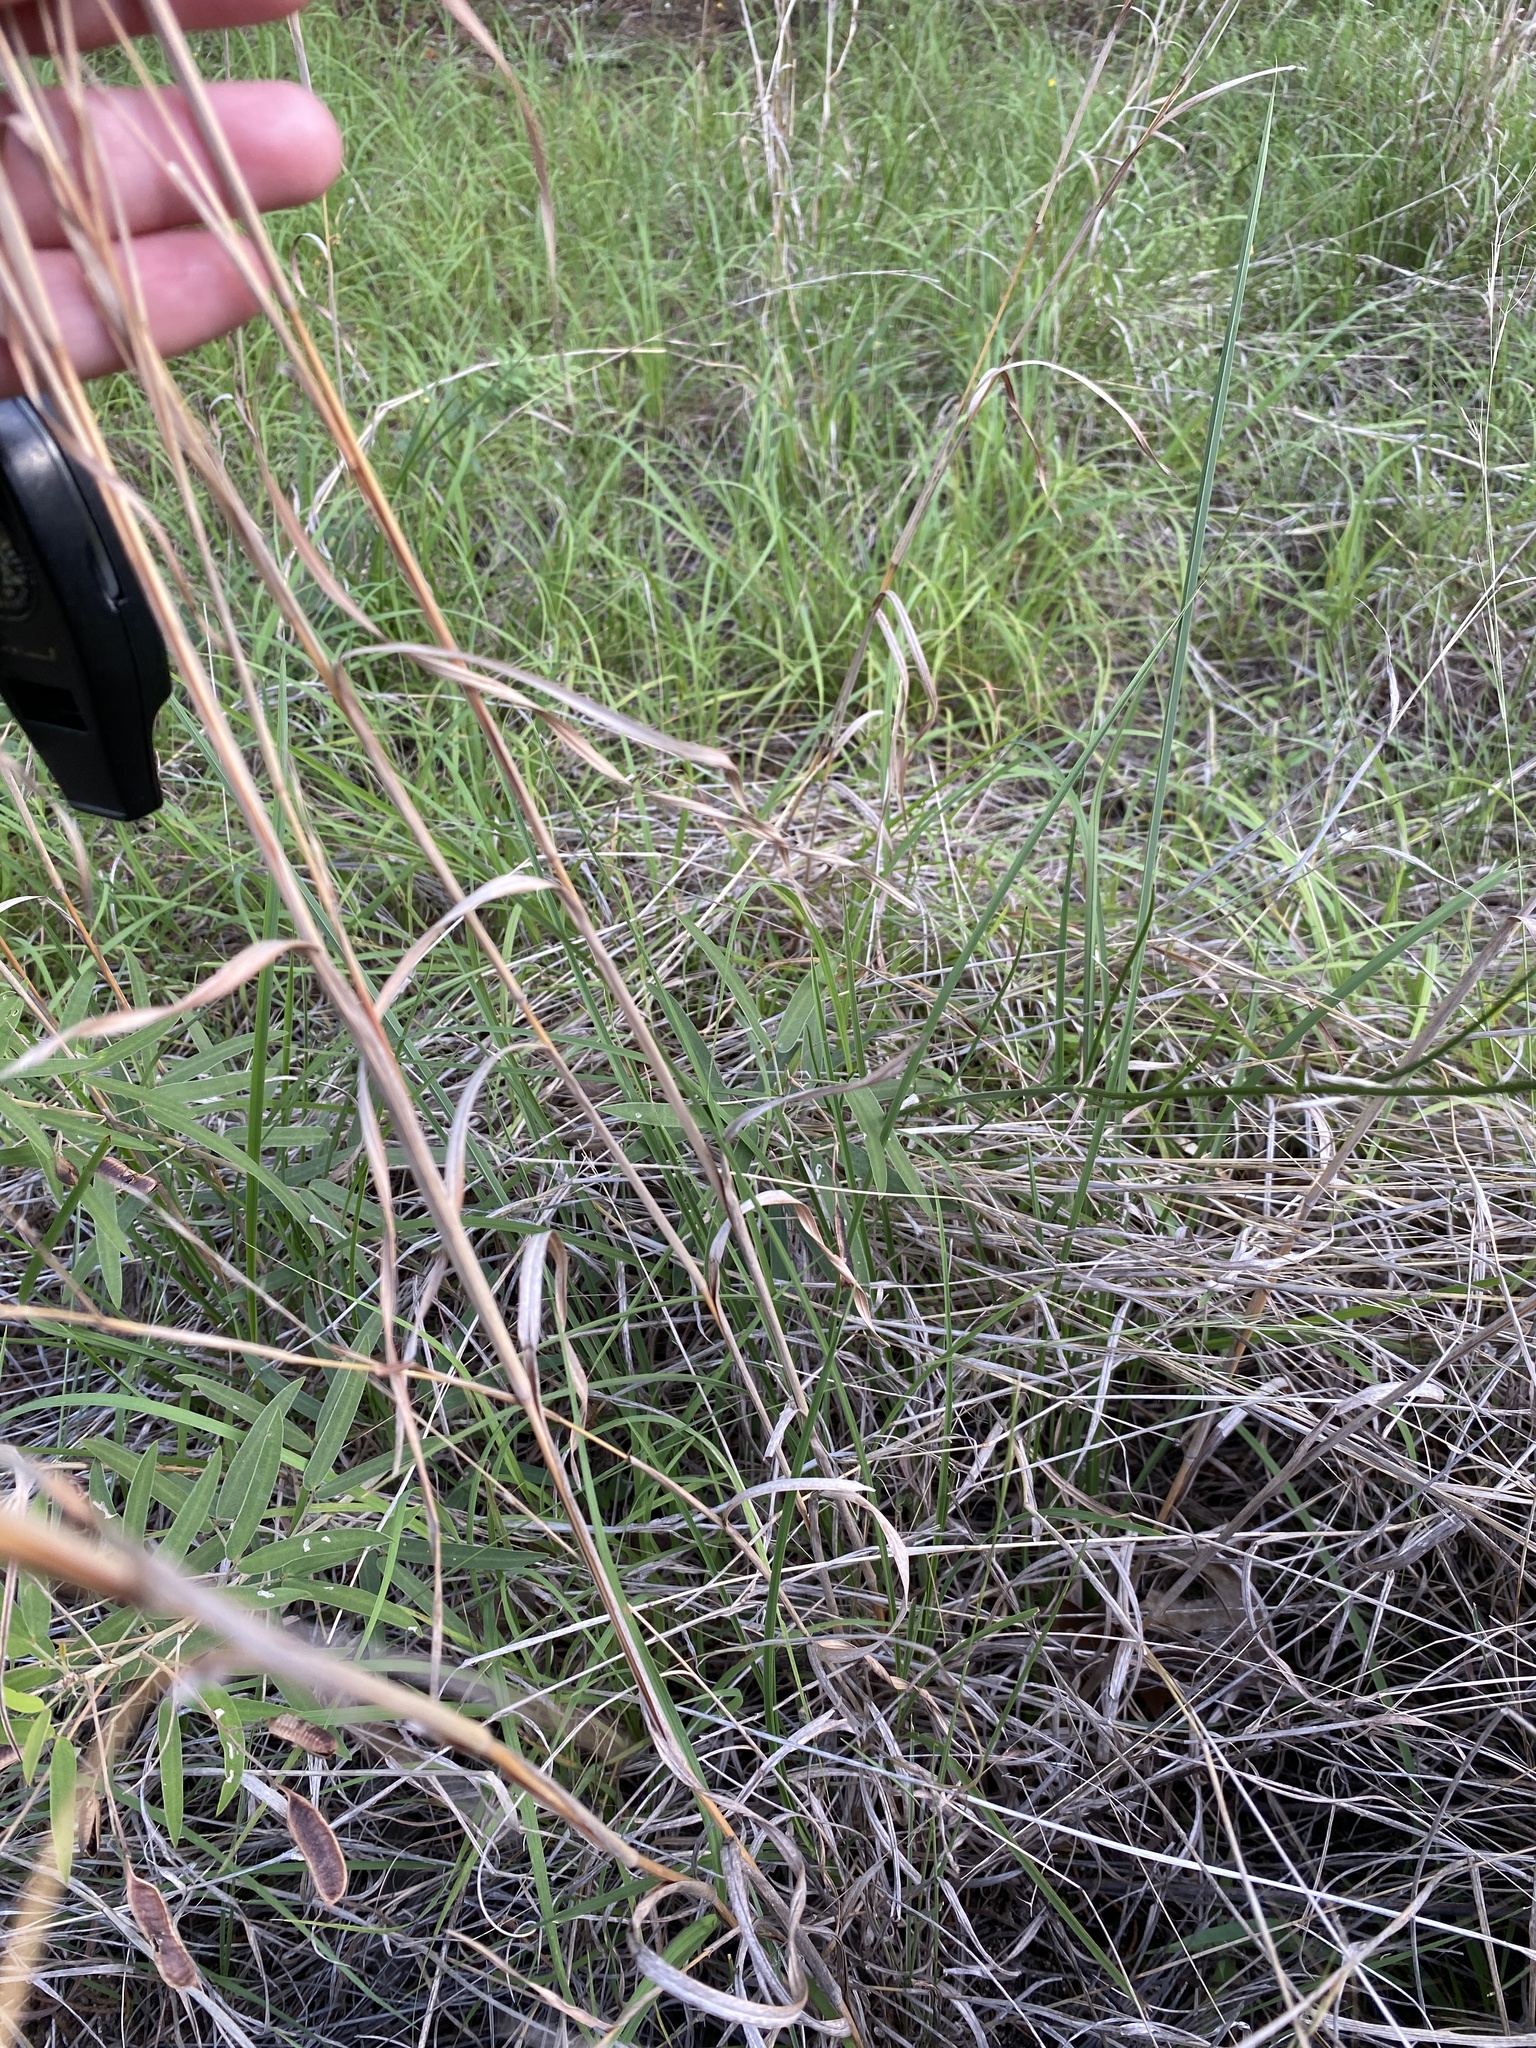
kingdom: Plantae
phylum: Tracheophyta
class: Liliopsida
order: Poales
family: Poaceae
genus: Schizachyrium
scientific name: Schizachyrium scoparium
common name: Little bluestem
